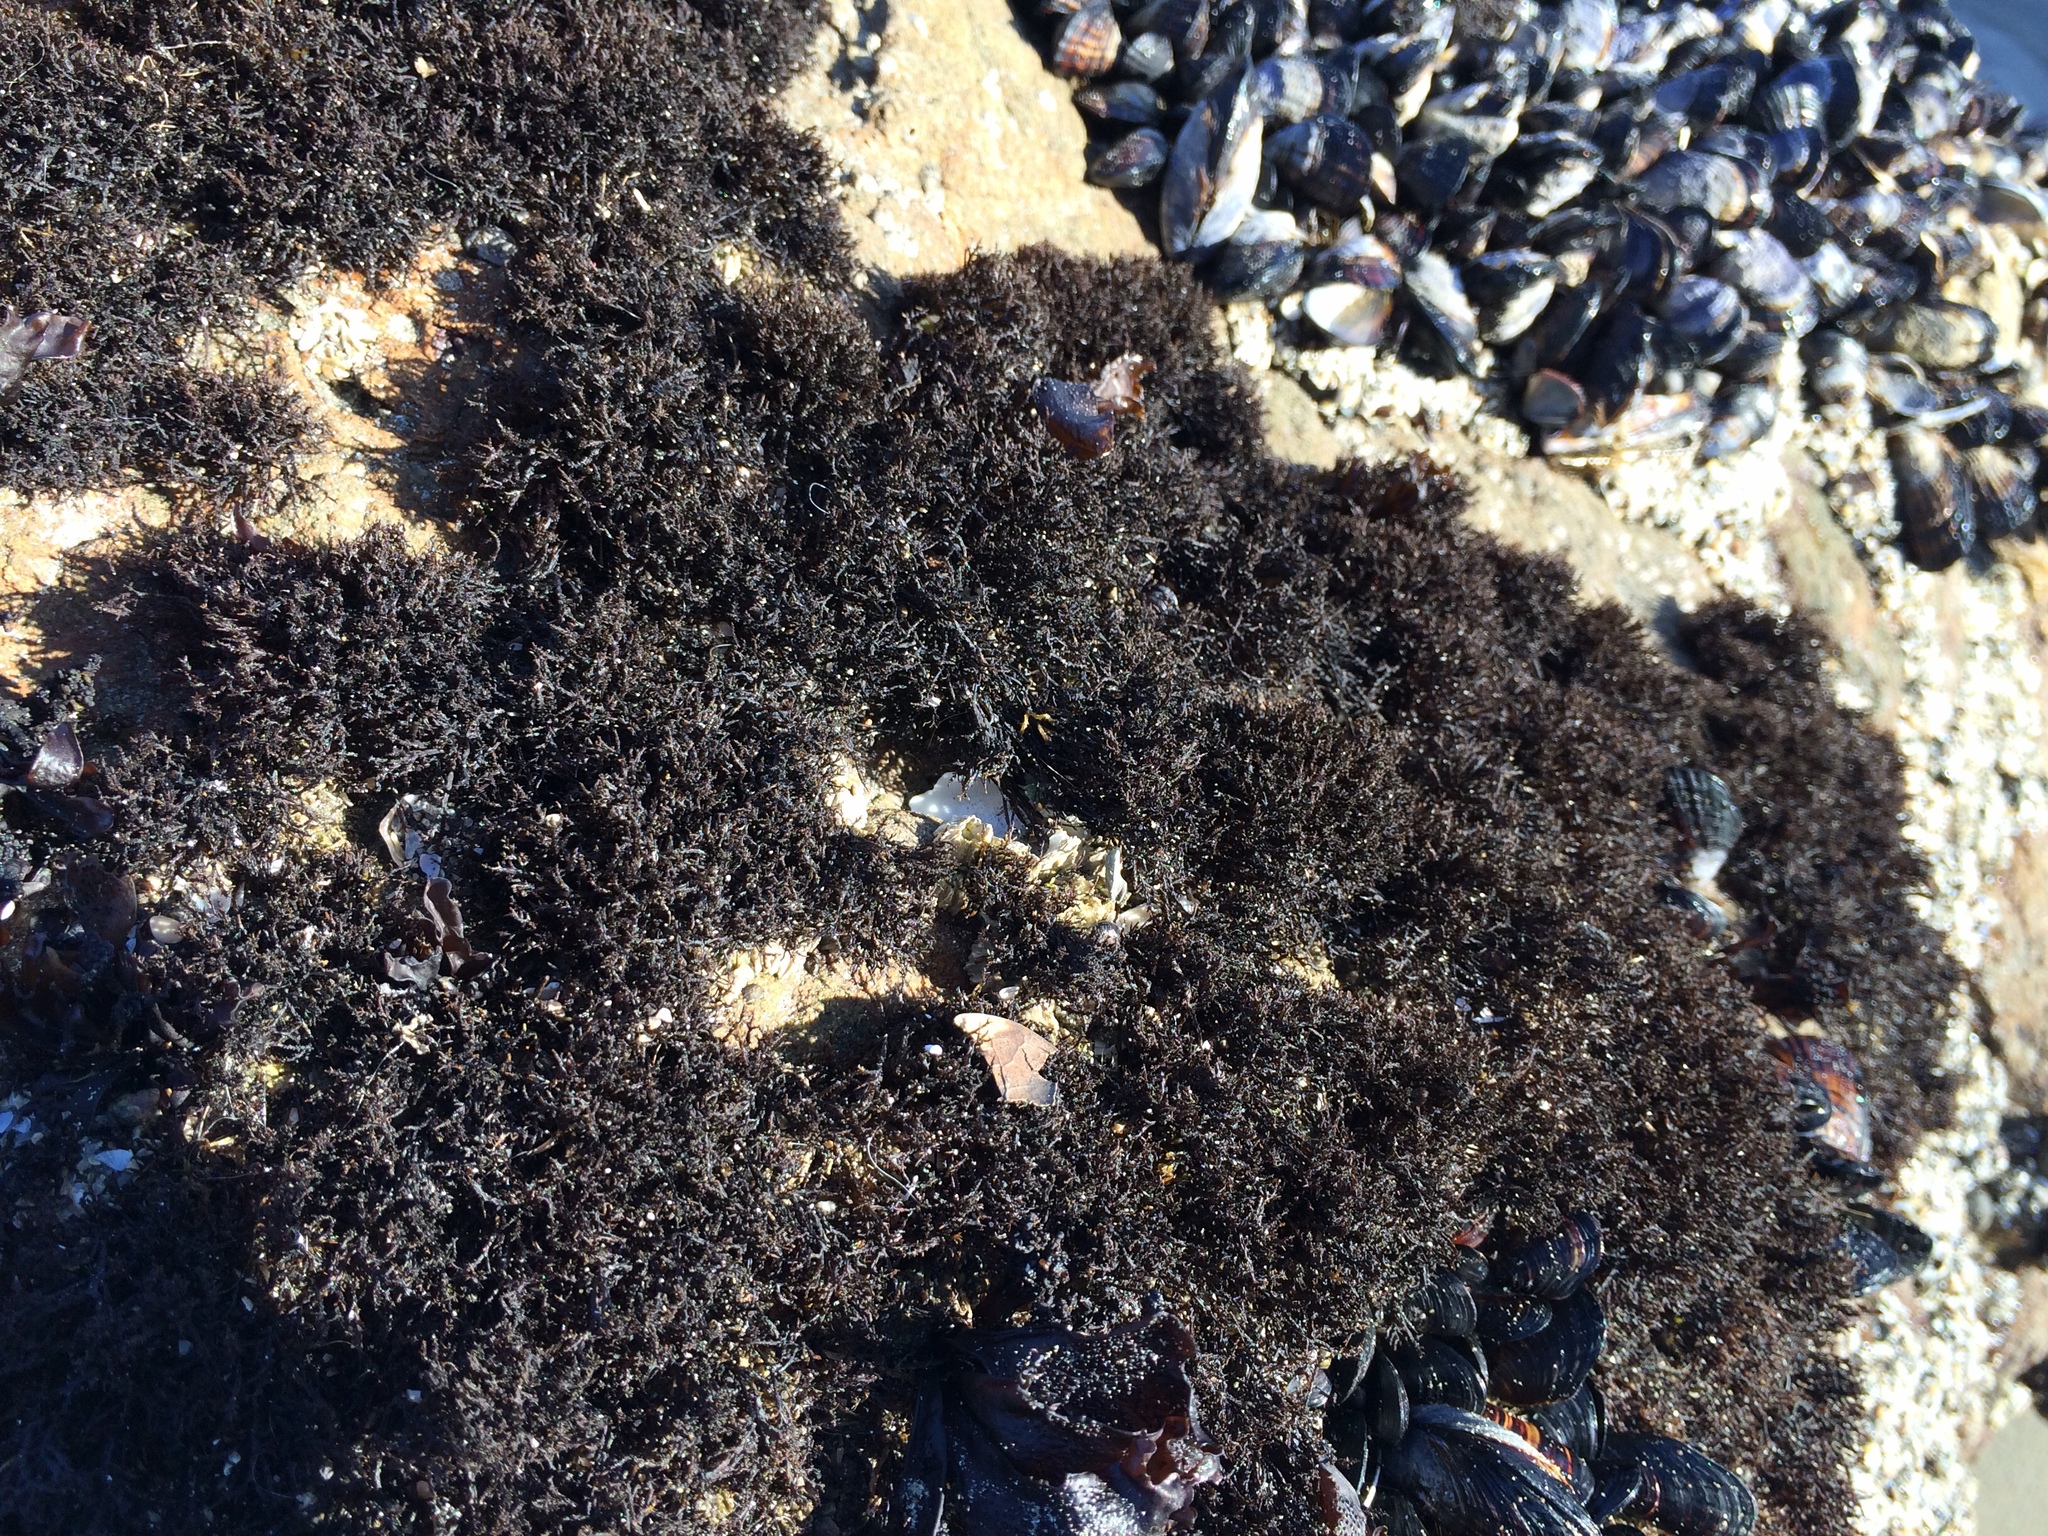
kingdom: Plantae
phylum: Rhodophyta
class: Florideophyceae
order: Gigartinales
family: Endocladiaceae
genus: Endocladia
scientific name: Endocladia muricata
